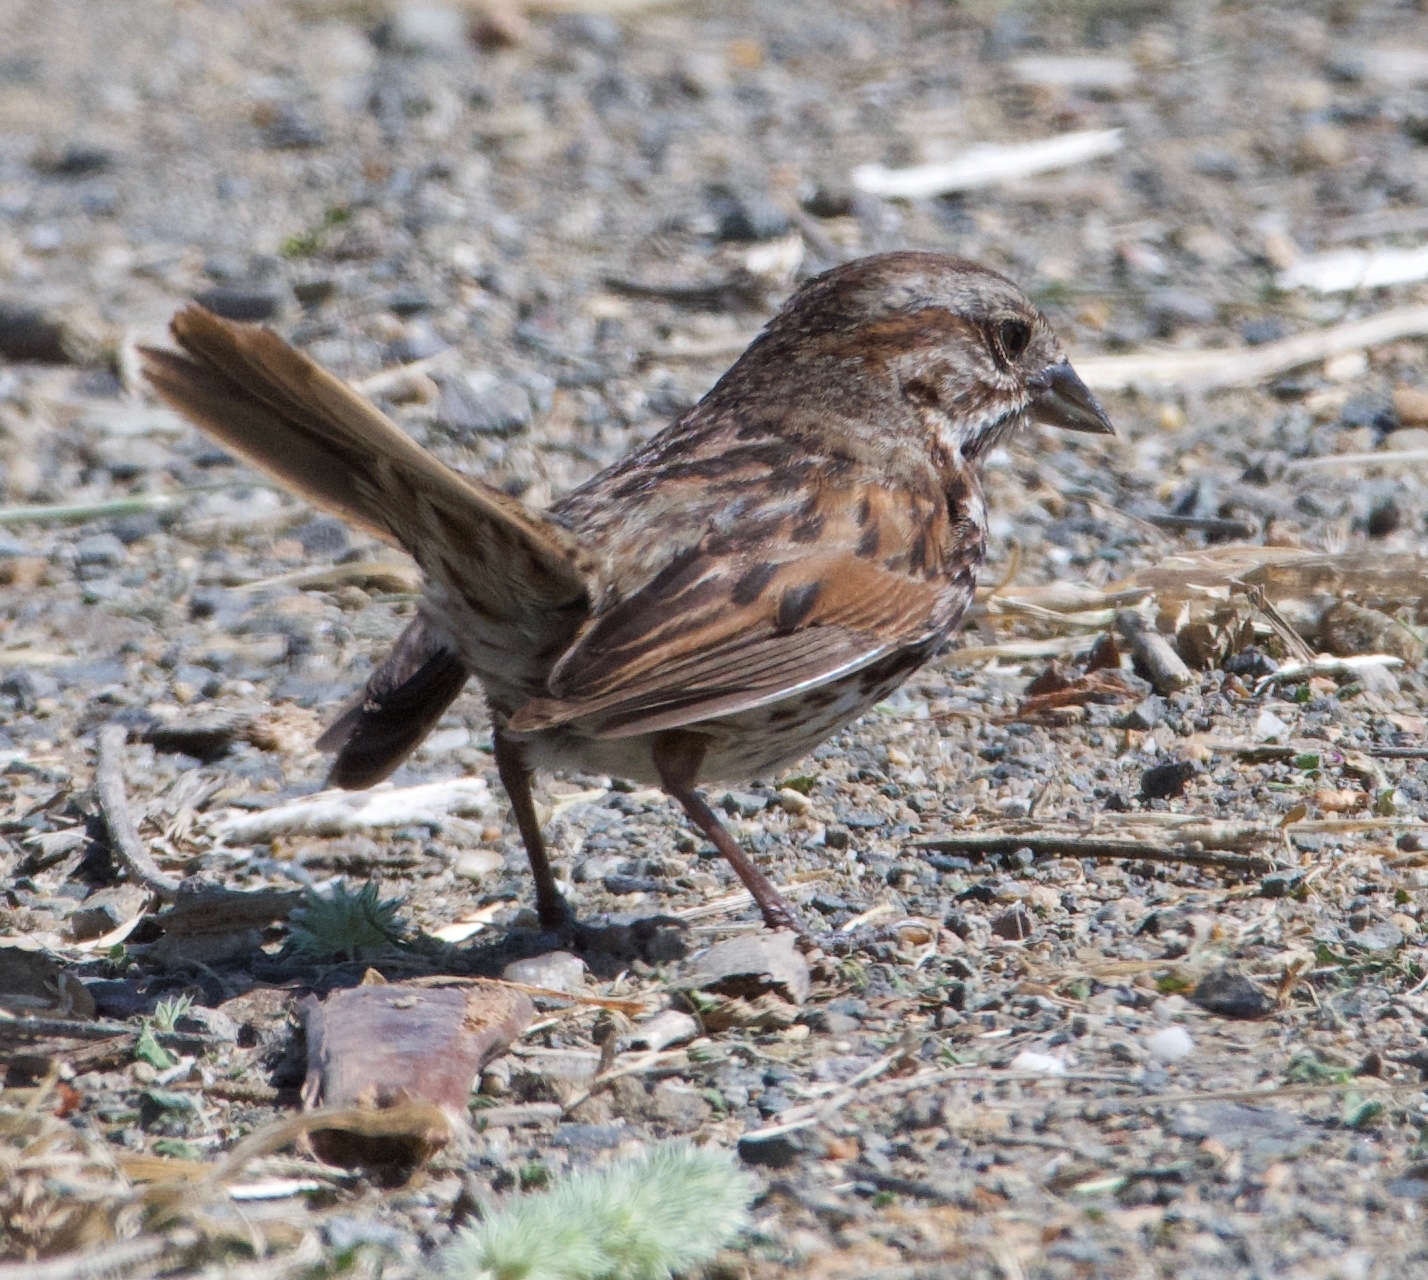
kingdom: Animalia
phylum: Chordata
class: Aves
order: Passeriformes
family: Passerellidae
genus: Melospiza
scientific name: Melospiza melodia
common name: Song sparrow
